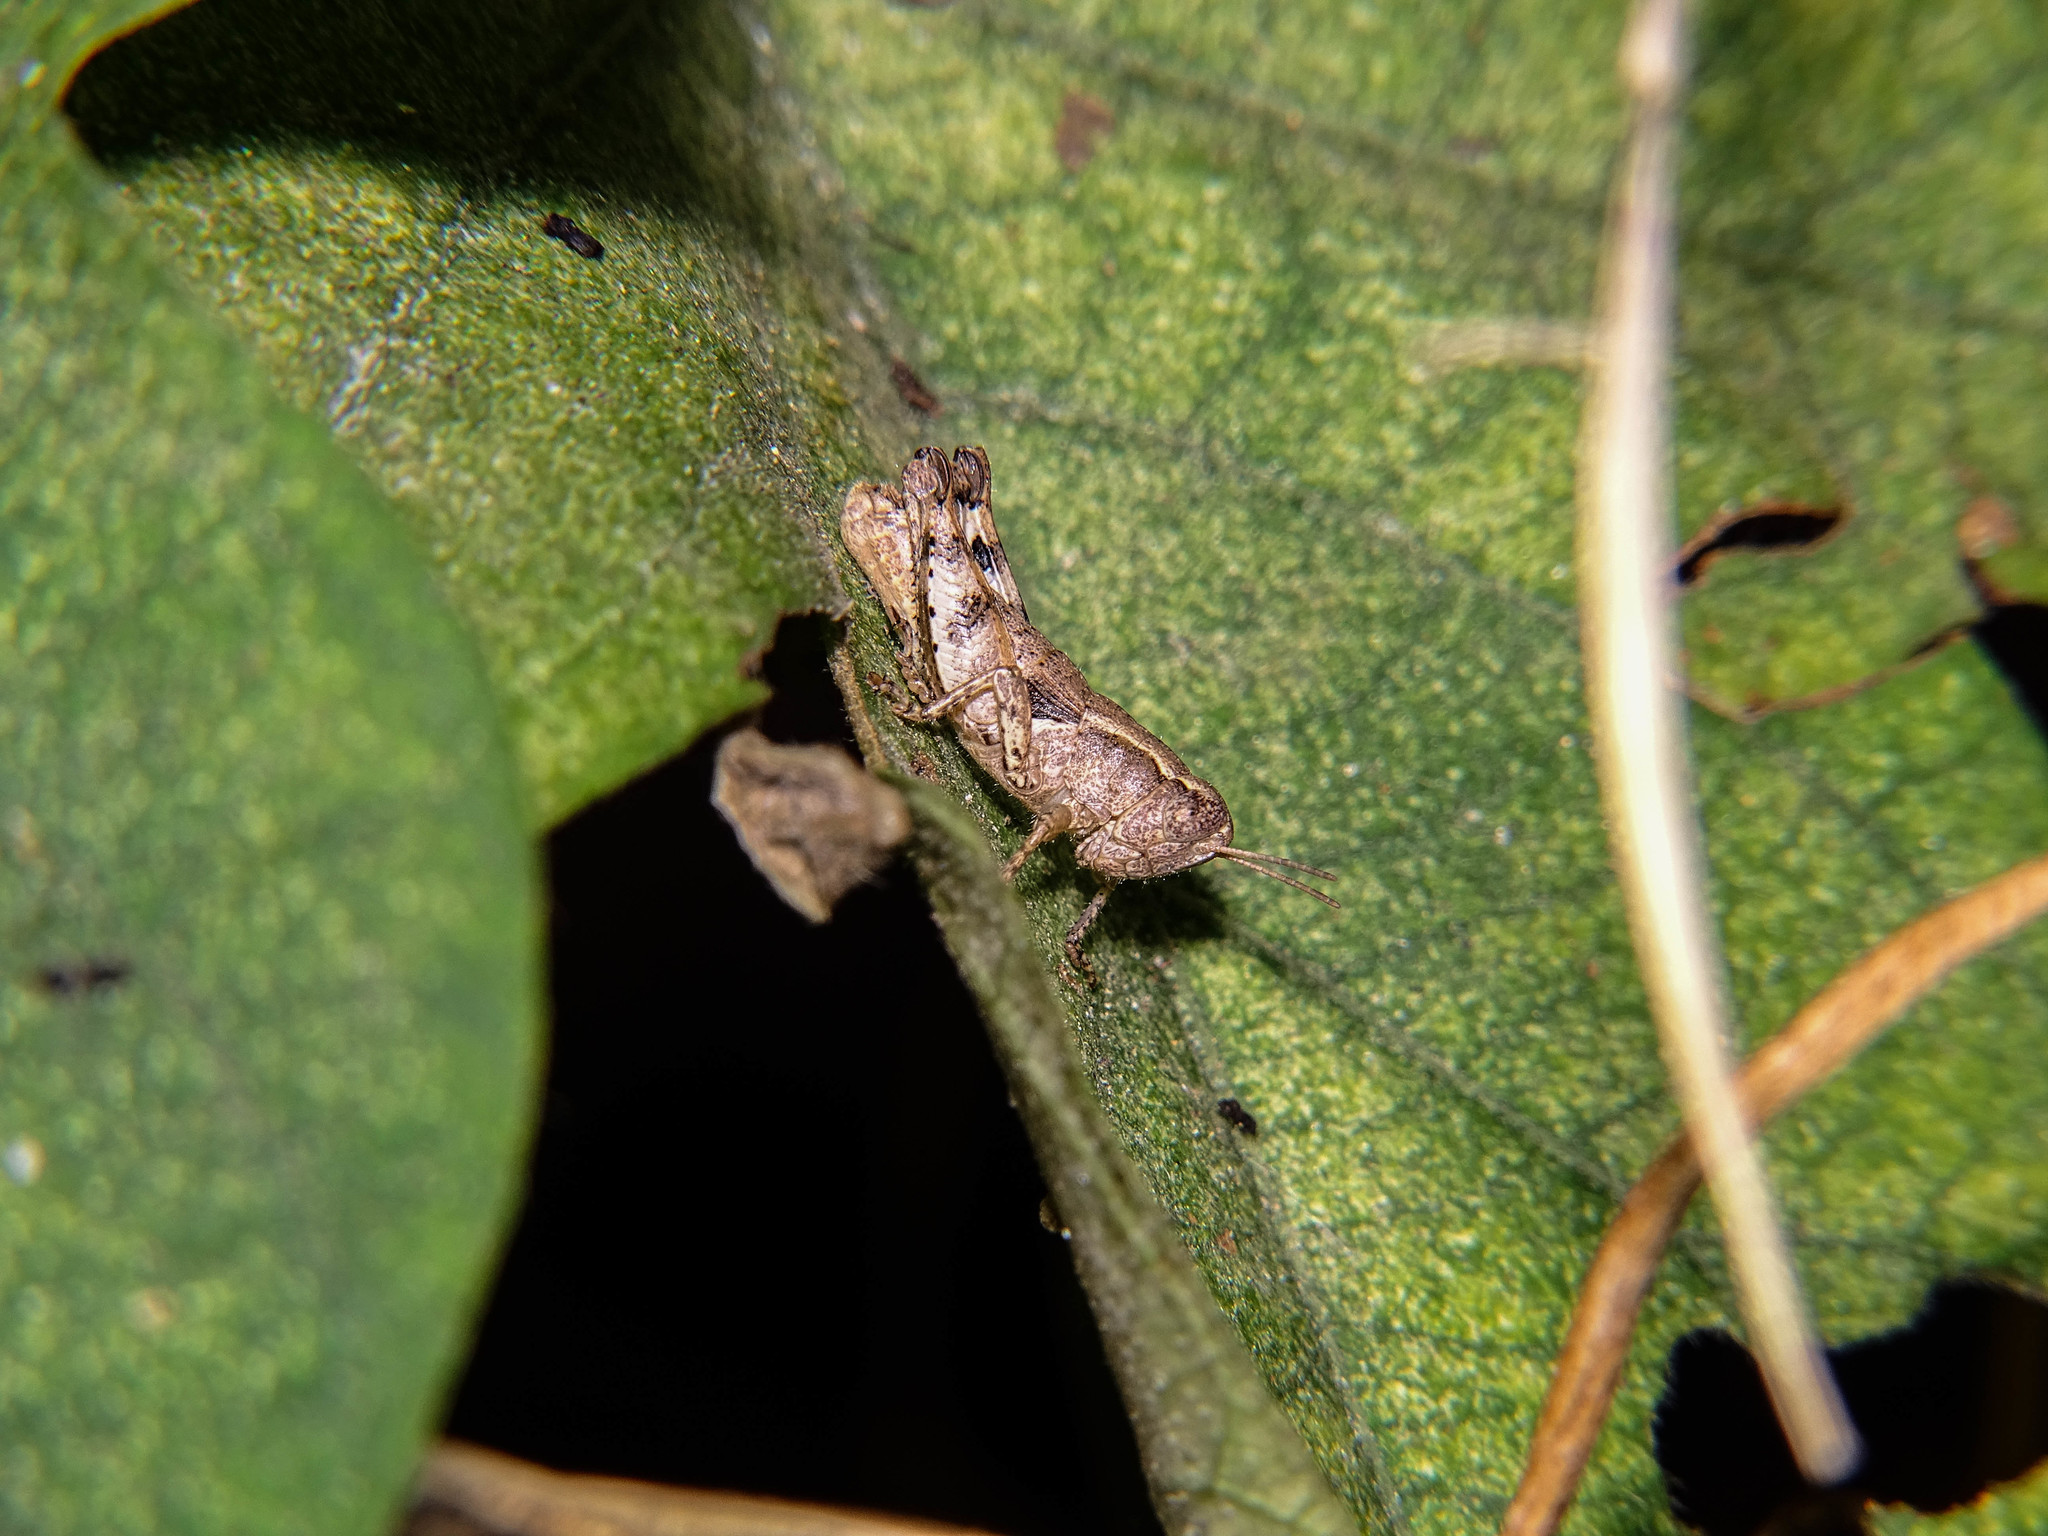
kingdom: Animalia
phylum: Arthropoda
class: Insecta
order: Orthoptera
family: Acrididae
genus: Pezotettix
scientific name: Pezotettix lagoi
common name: Rhodes maquis grasshopper
